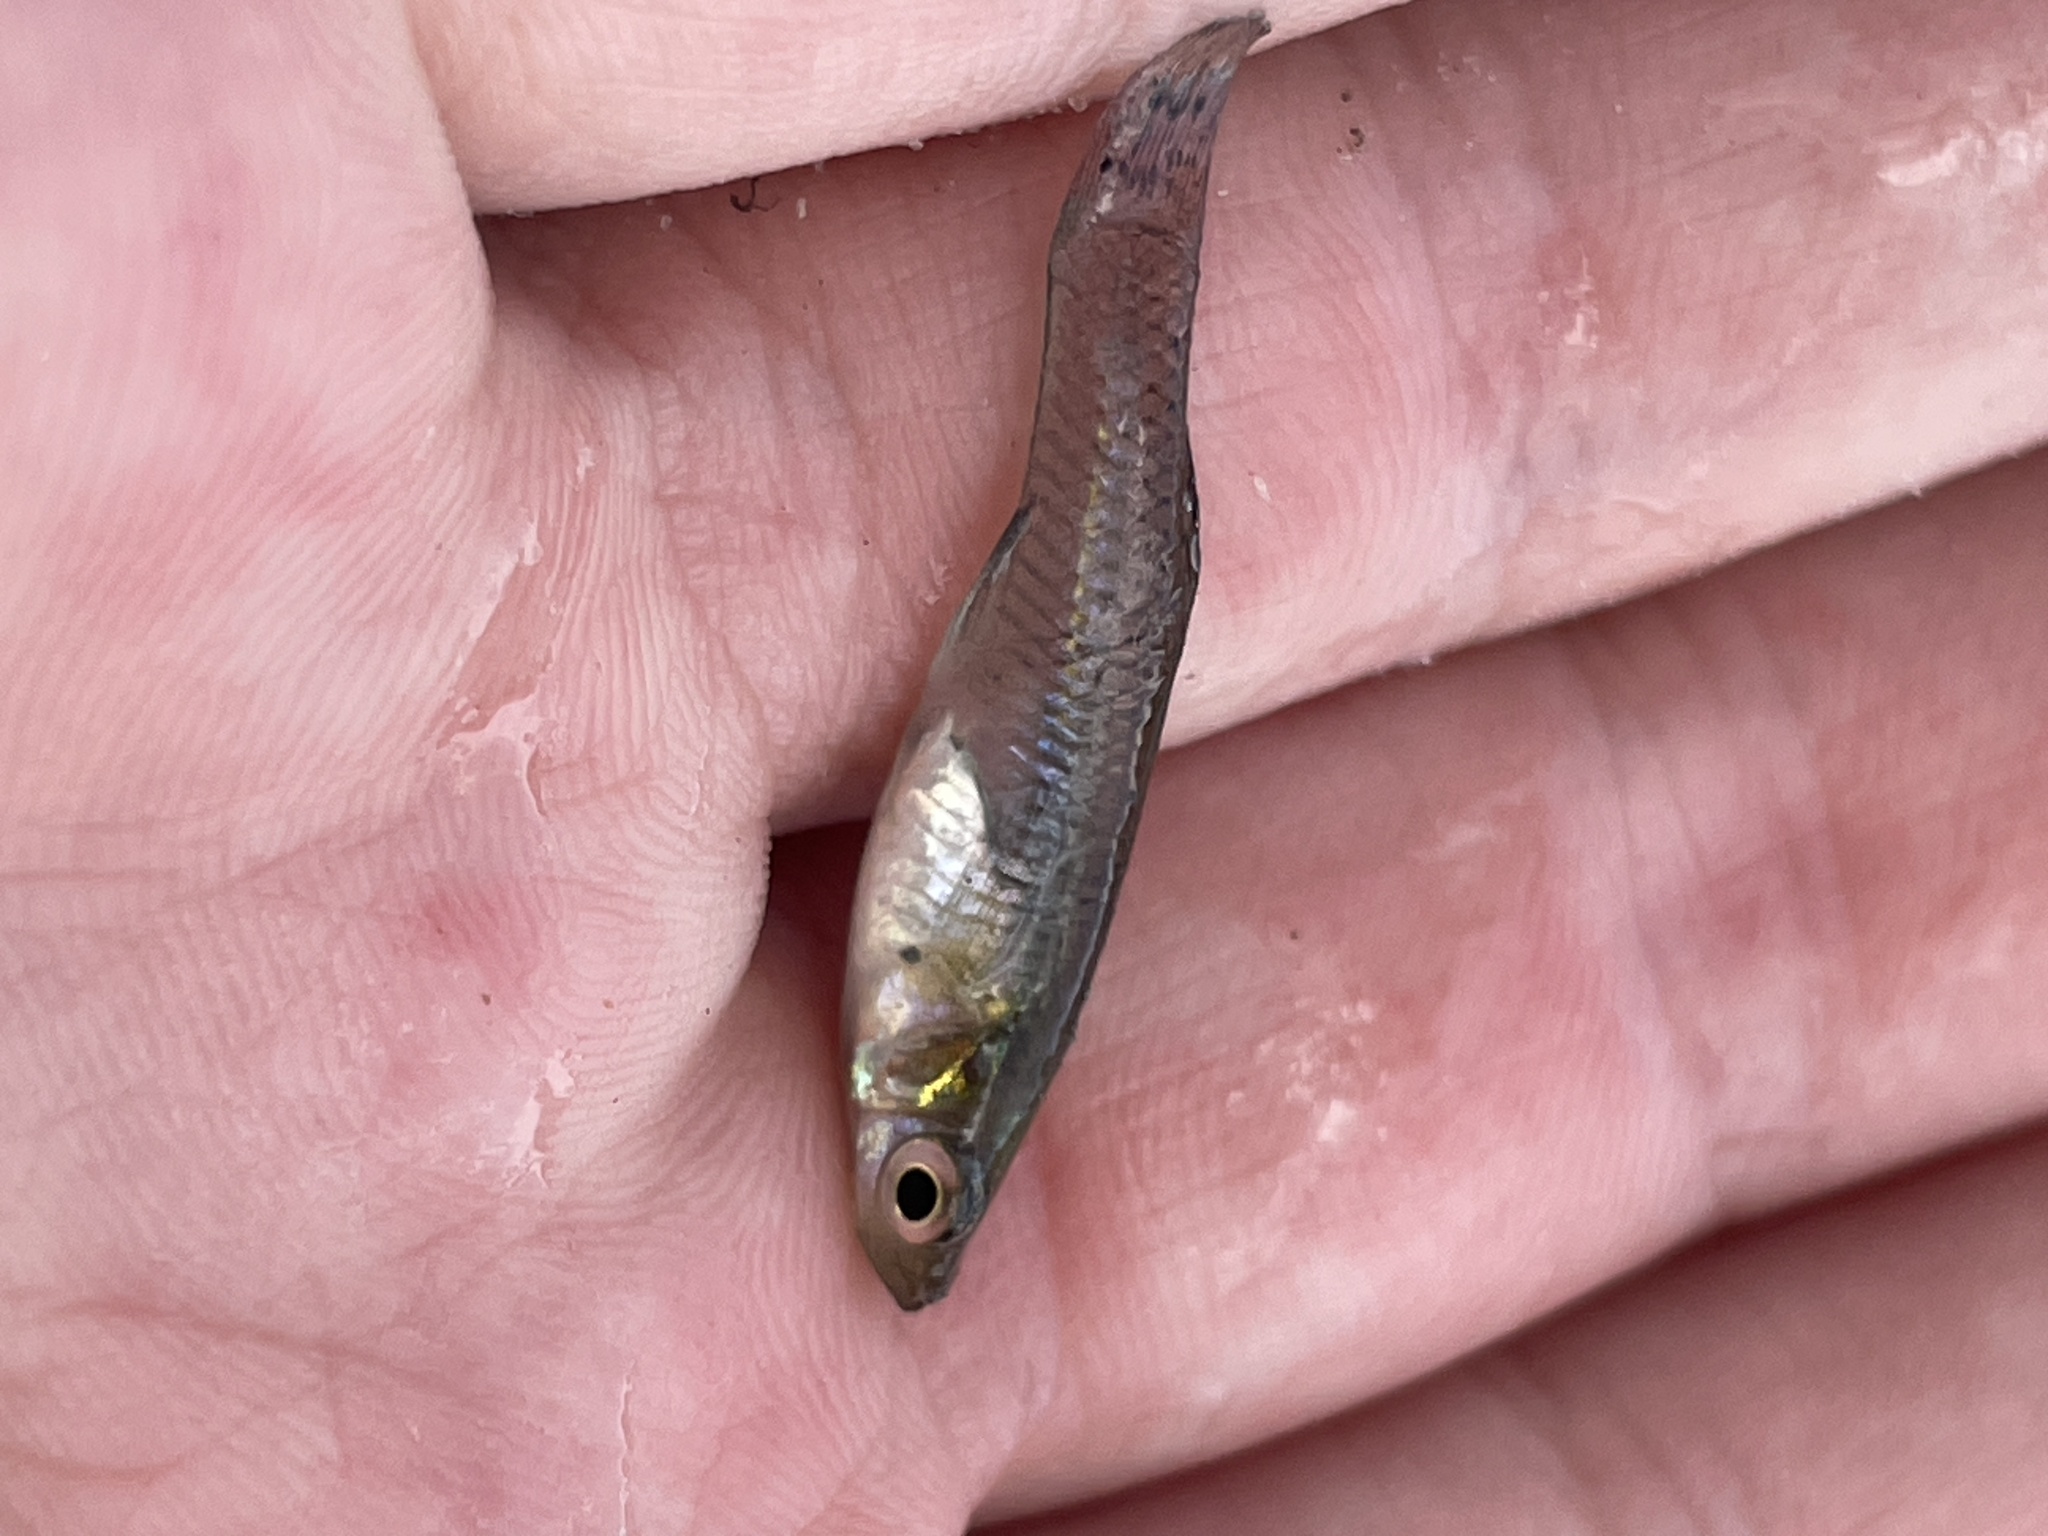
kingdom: Animalia
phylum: Chordata
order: Cyprinodontiformes
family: Poeciliidae
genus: Gambusia
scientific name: Gambusia holbrooki
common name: Eastern mosquitofish
